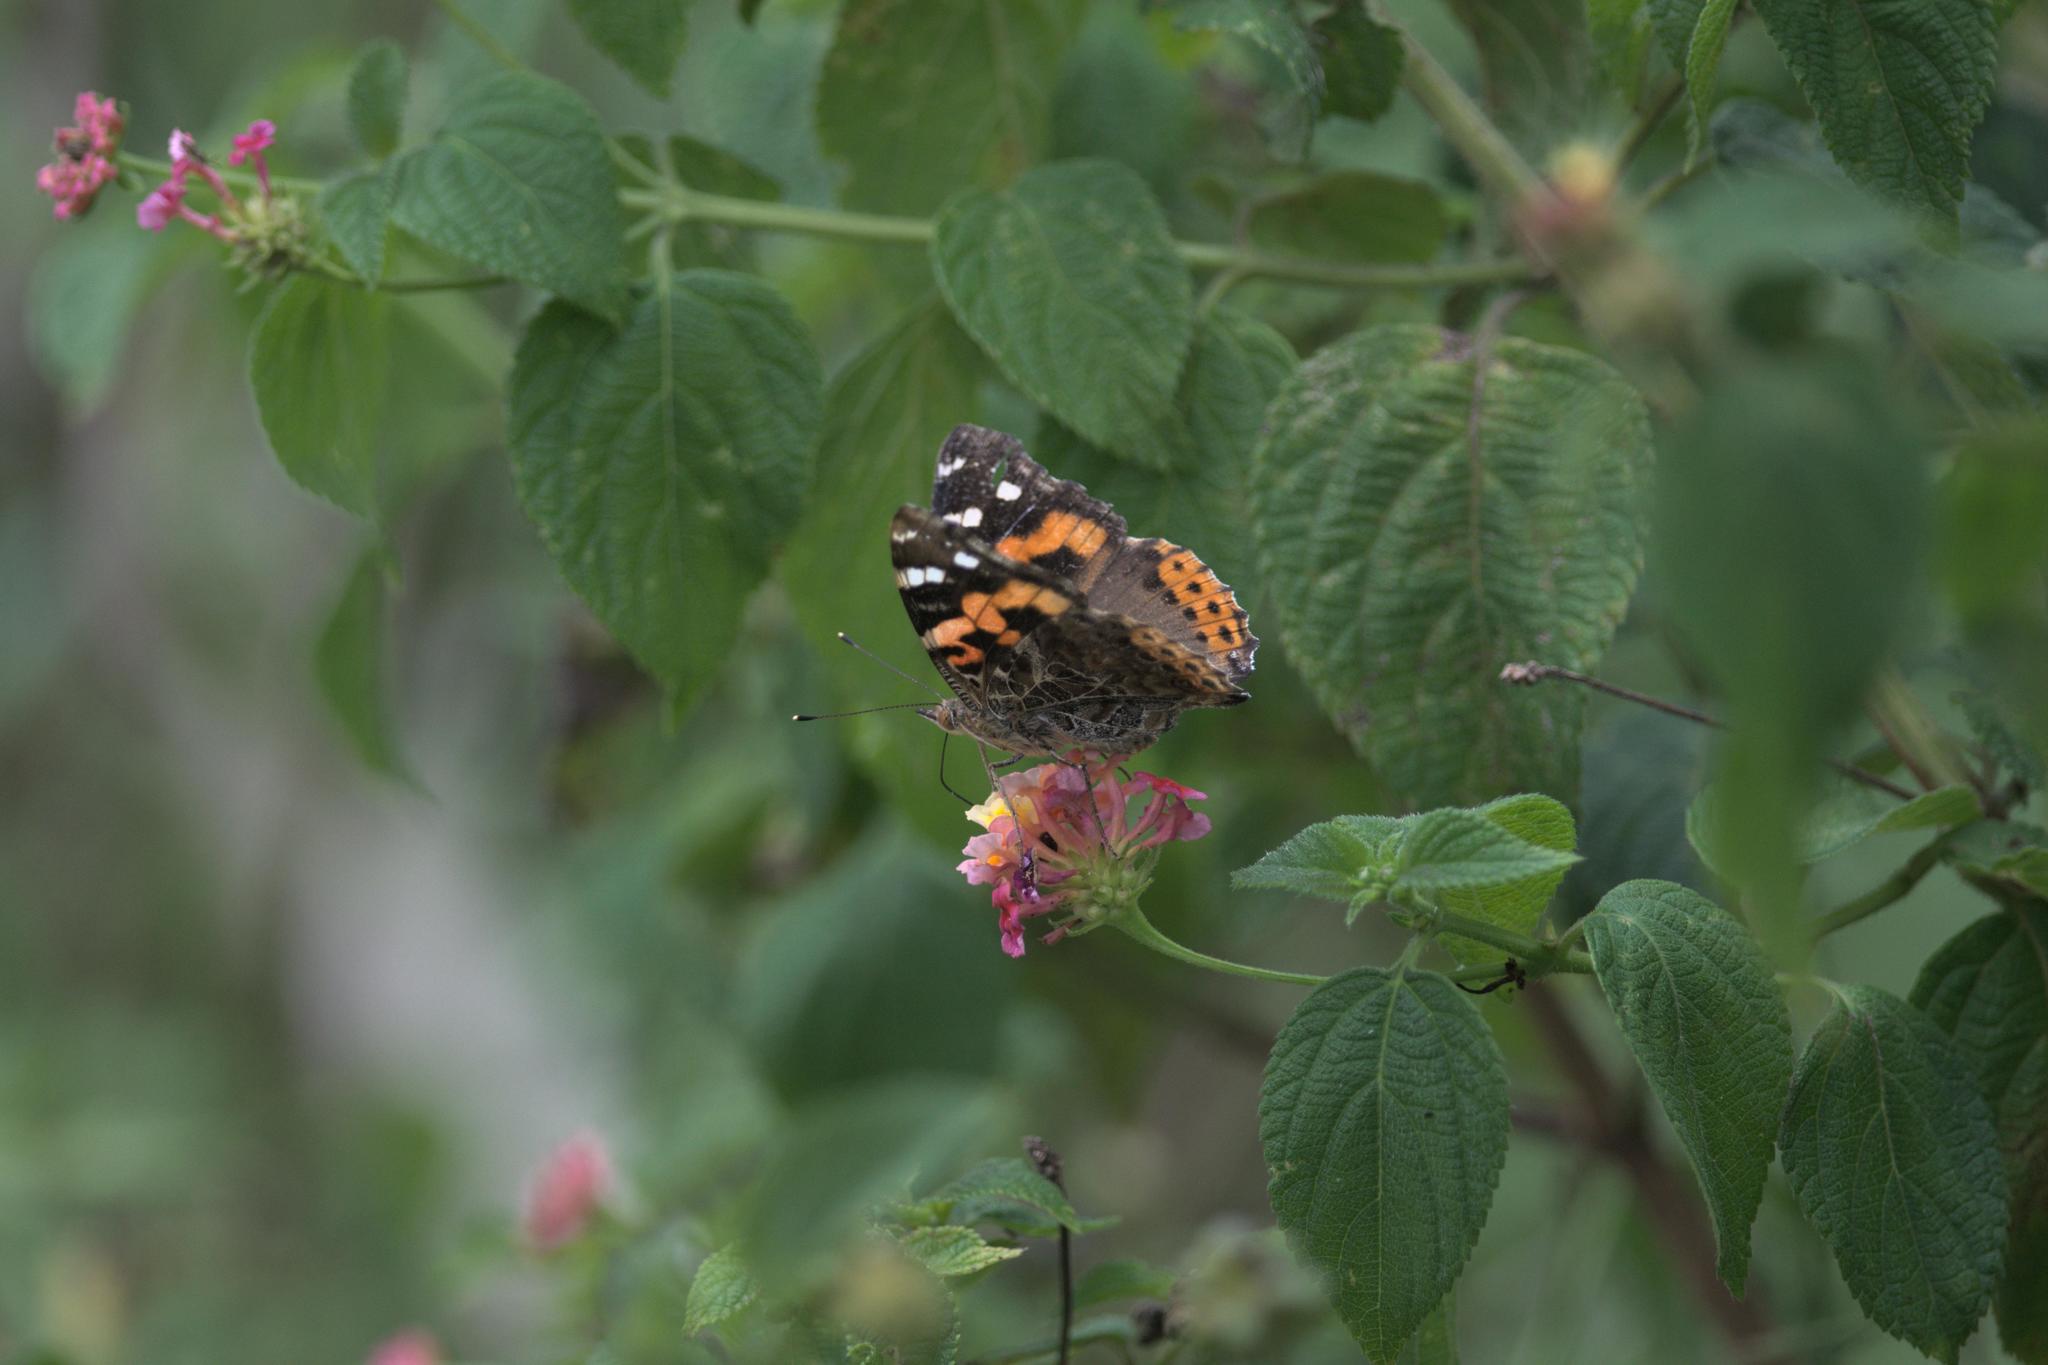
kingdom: Animalia
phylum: Arthropoda
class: Insecta
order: Lepidoptera
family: Nymphalidae
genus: Vanessa
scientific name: Vanessa indica
